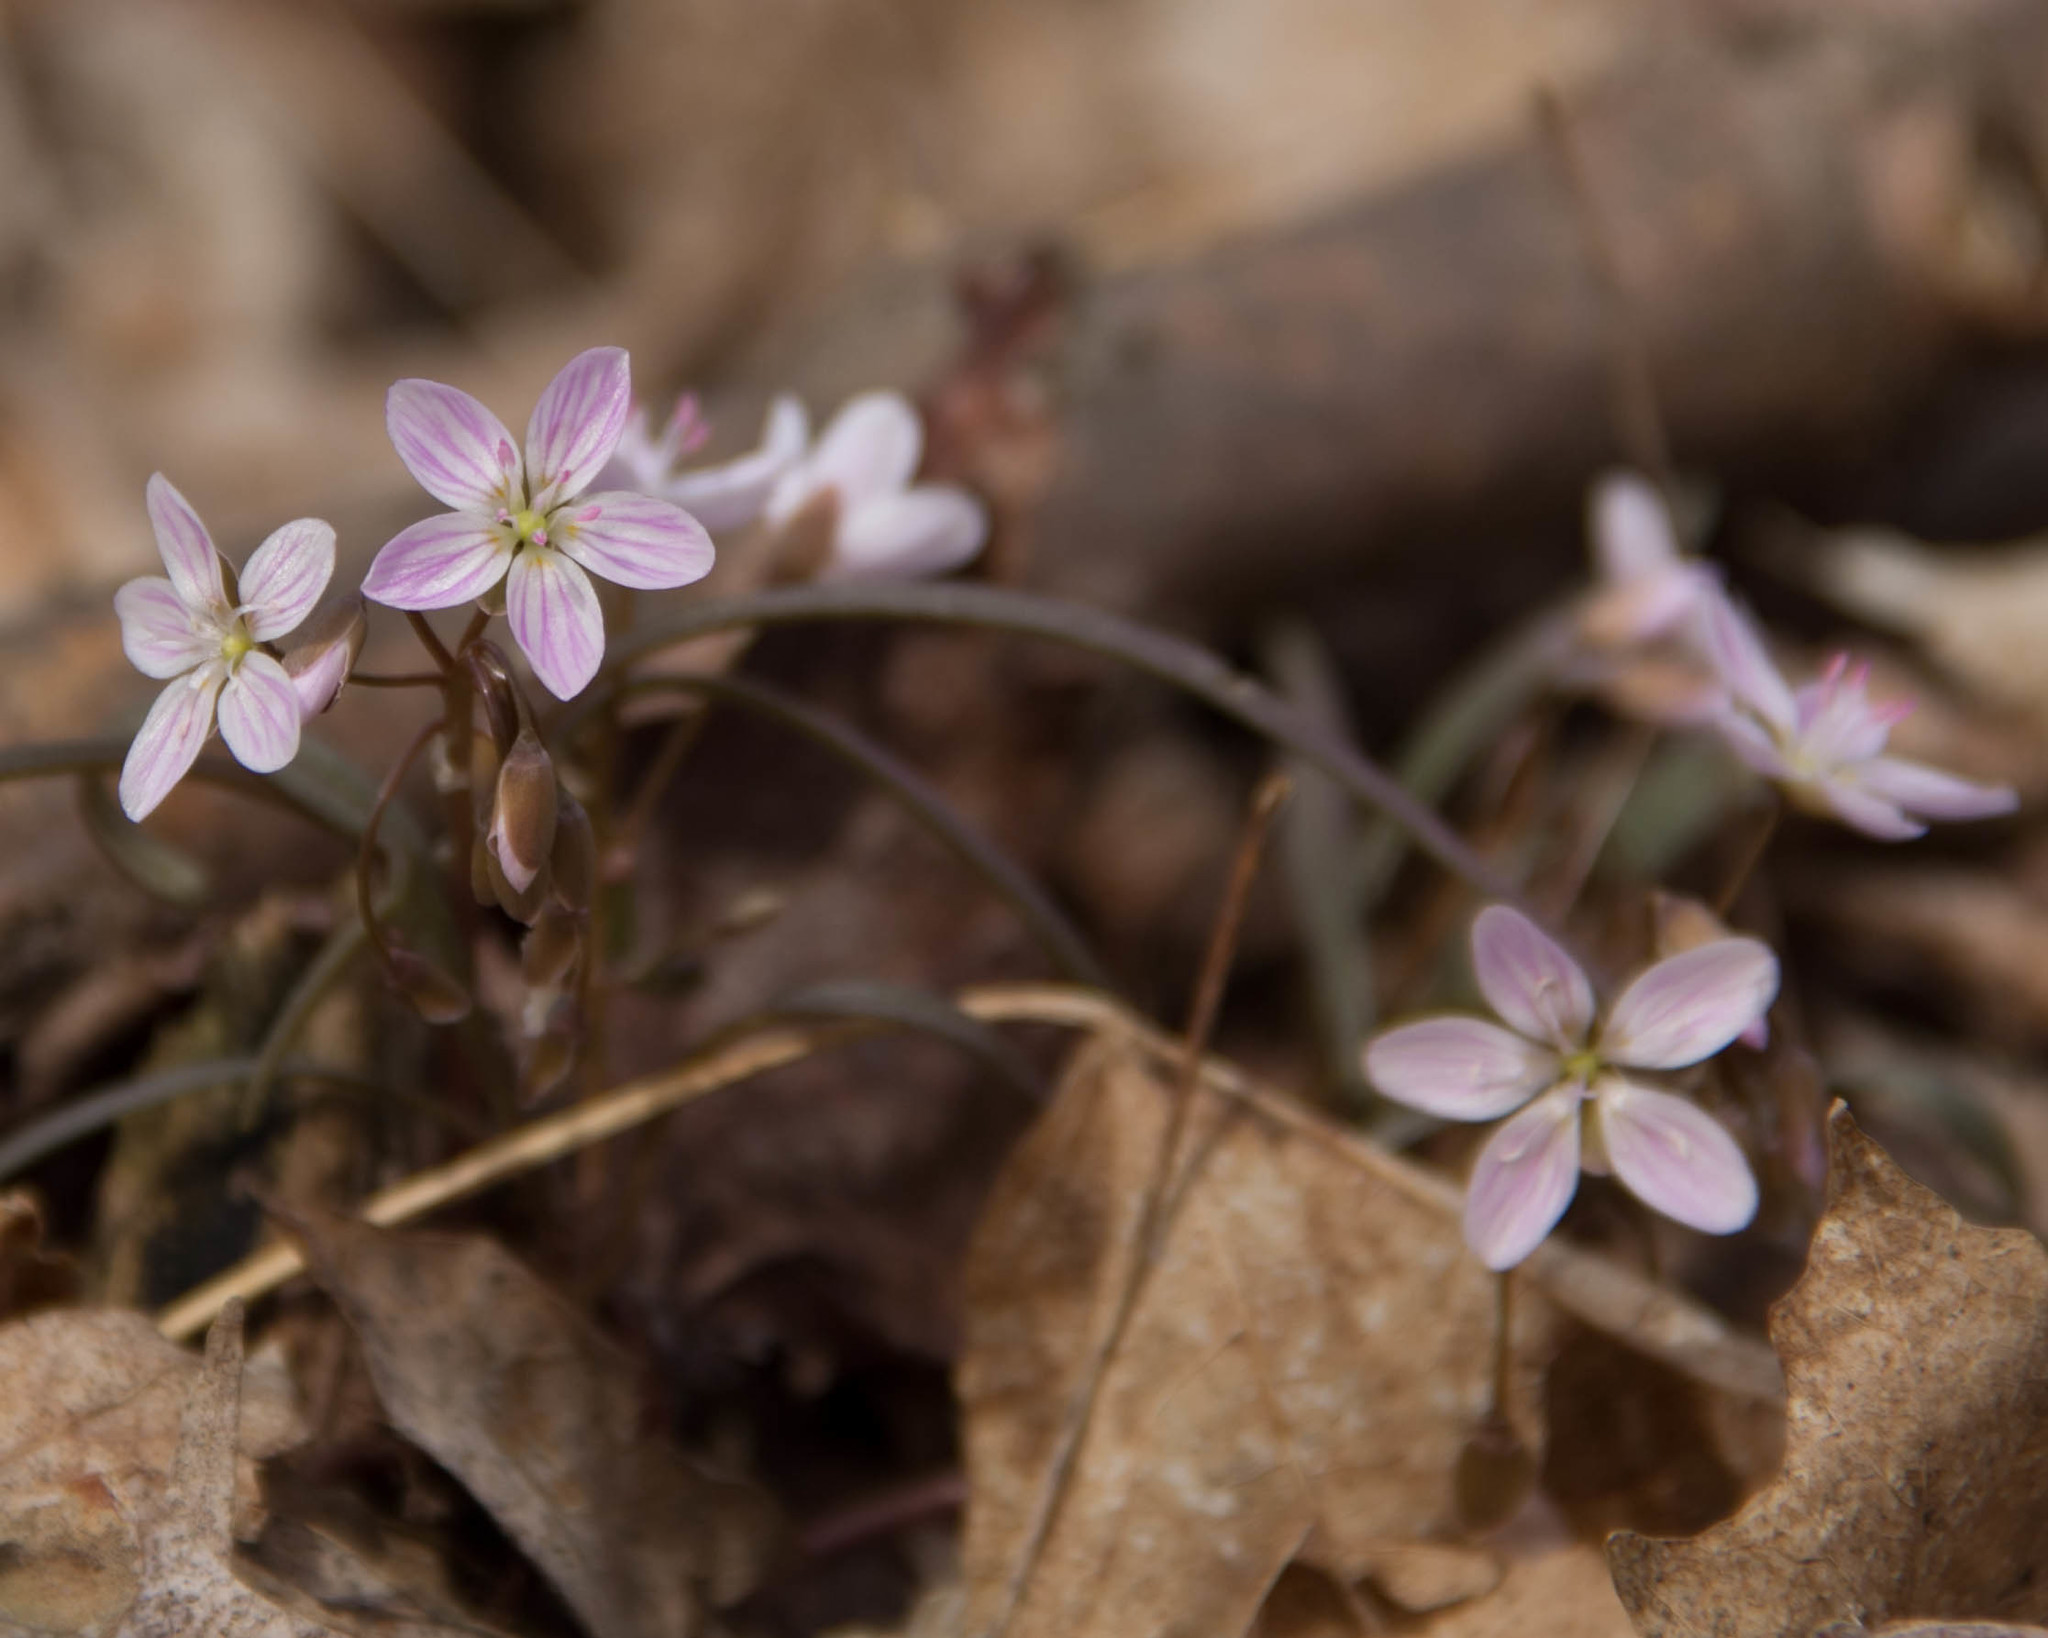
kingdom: Plantae
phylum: Tracheophyta
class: Magnoliopsida
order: Caryophyllales
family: Montiaceae
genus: Claytonia
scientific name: Claytonia virginica
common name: Virginia springbeauty
